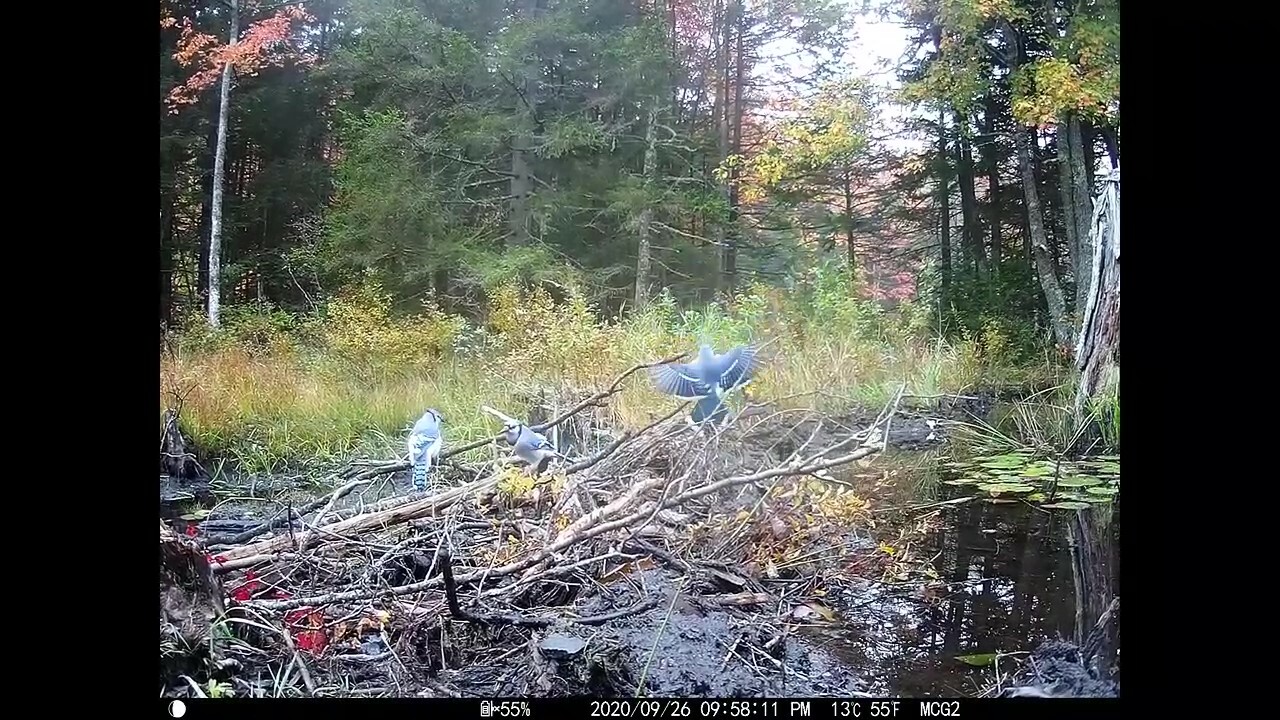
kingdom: Animalia
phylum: Chordata
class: Aves
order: Passeriformes
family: Corvidae
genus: Cyanocitta
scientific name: Cyanocitta cristata
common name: Blue jay
